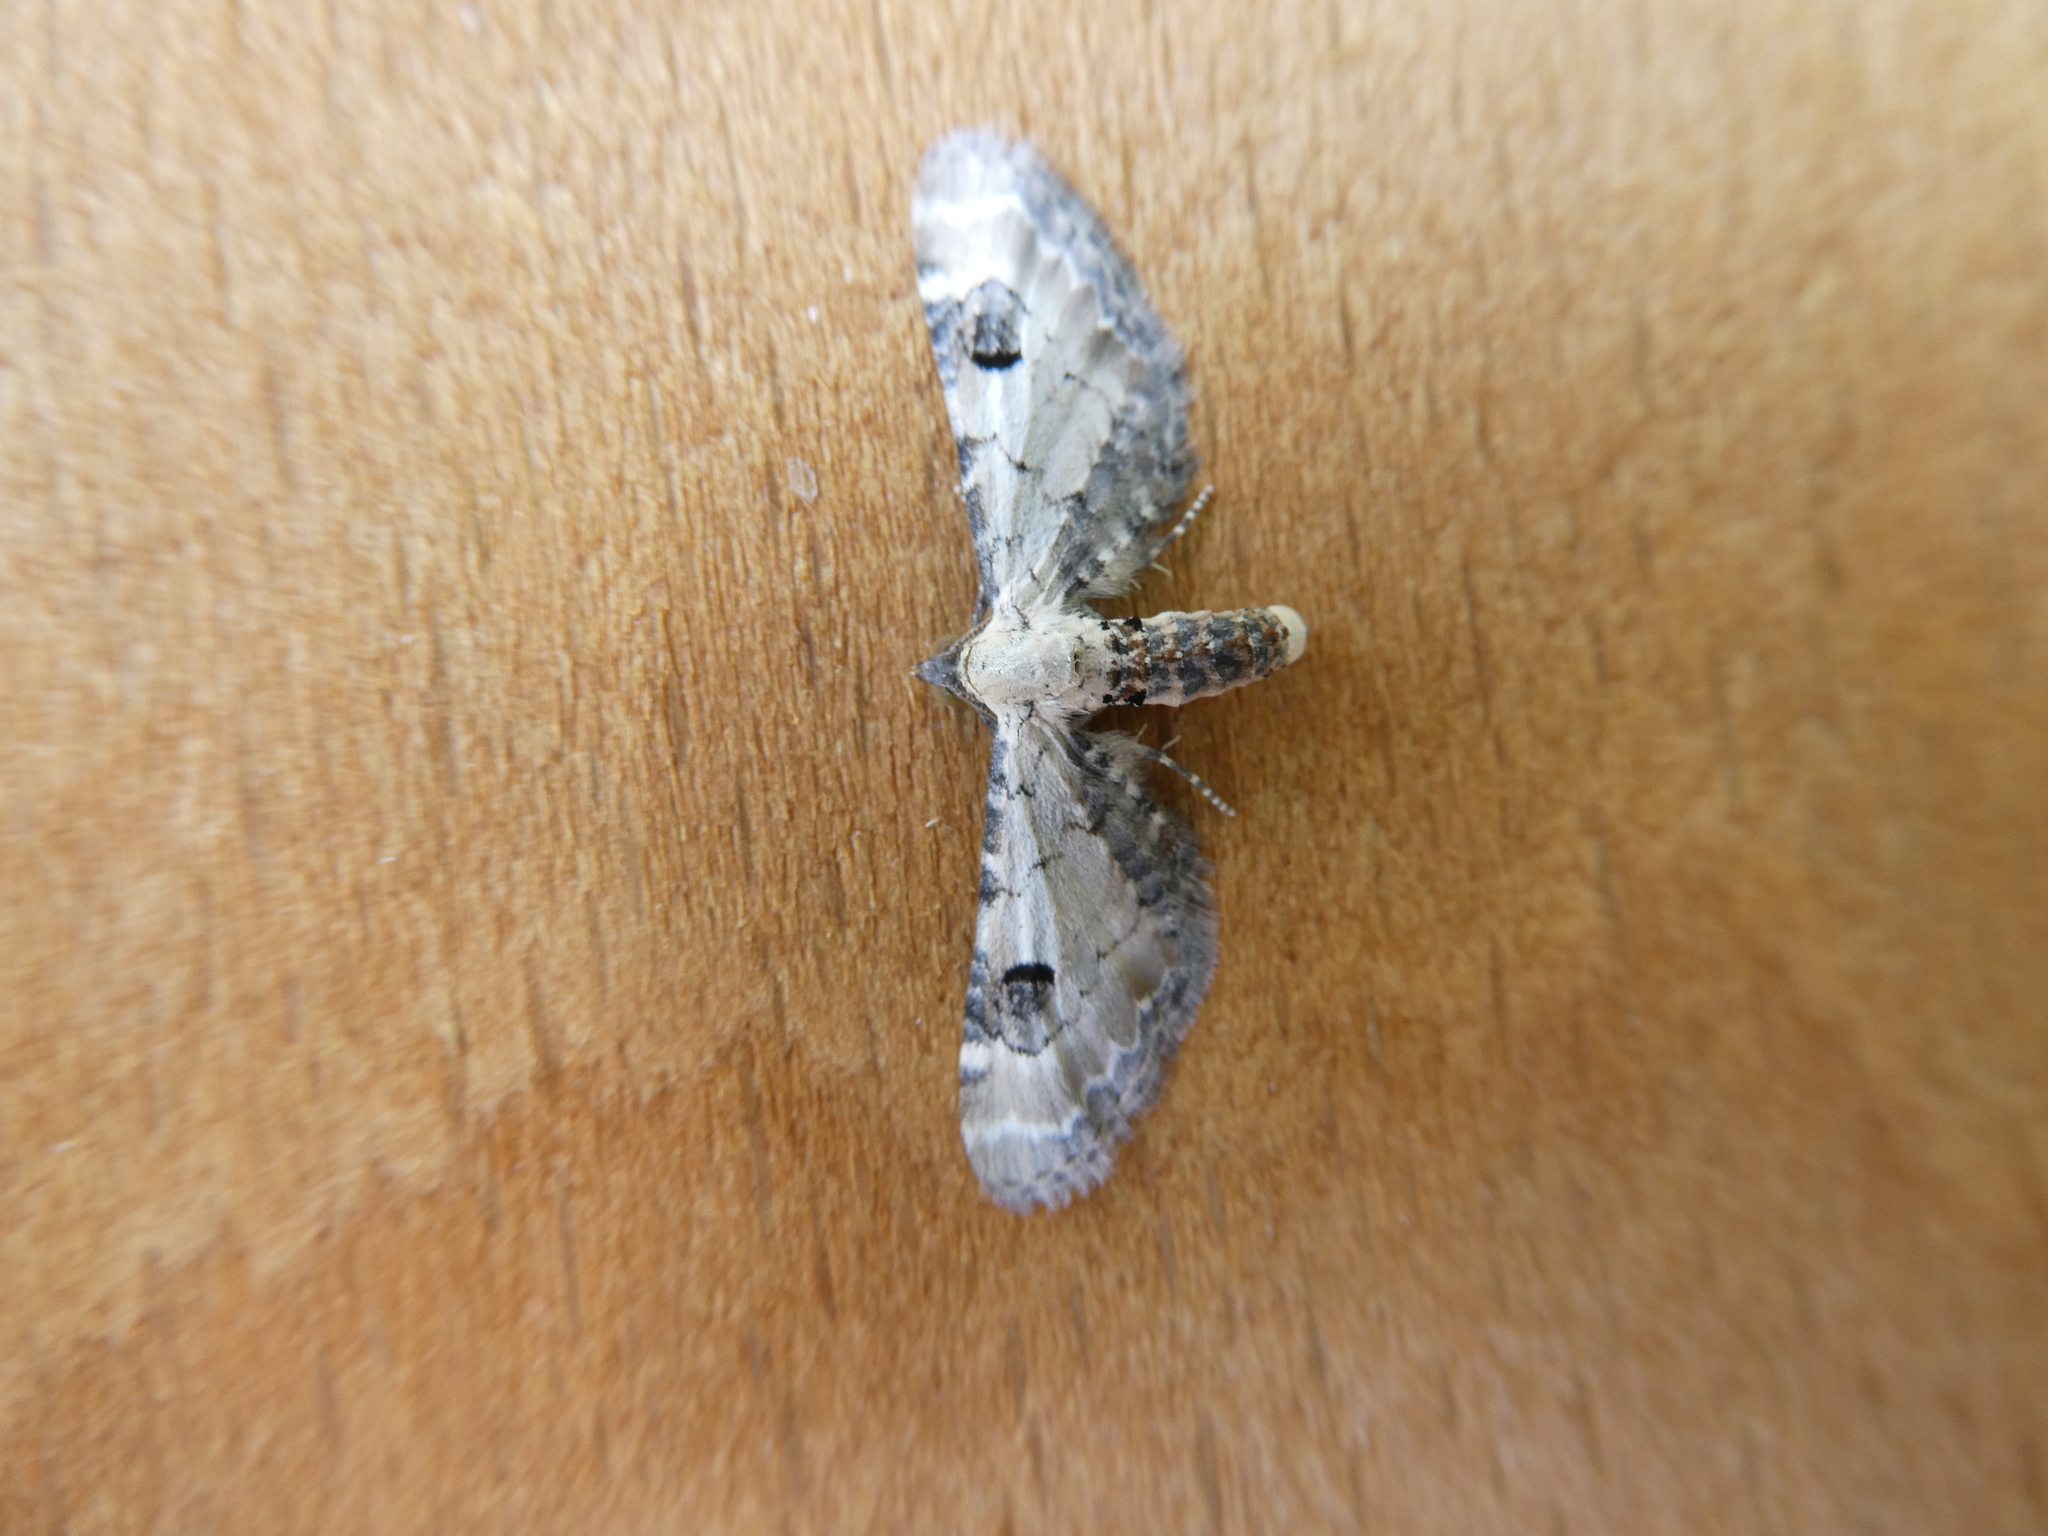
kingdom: Animalia
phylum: Arthropoda
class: Insecta
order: Lepidoptera
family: Geometridae
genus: Eupithecia
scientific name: Eupithecia centaureata
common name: Lime-speck pug
